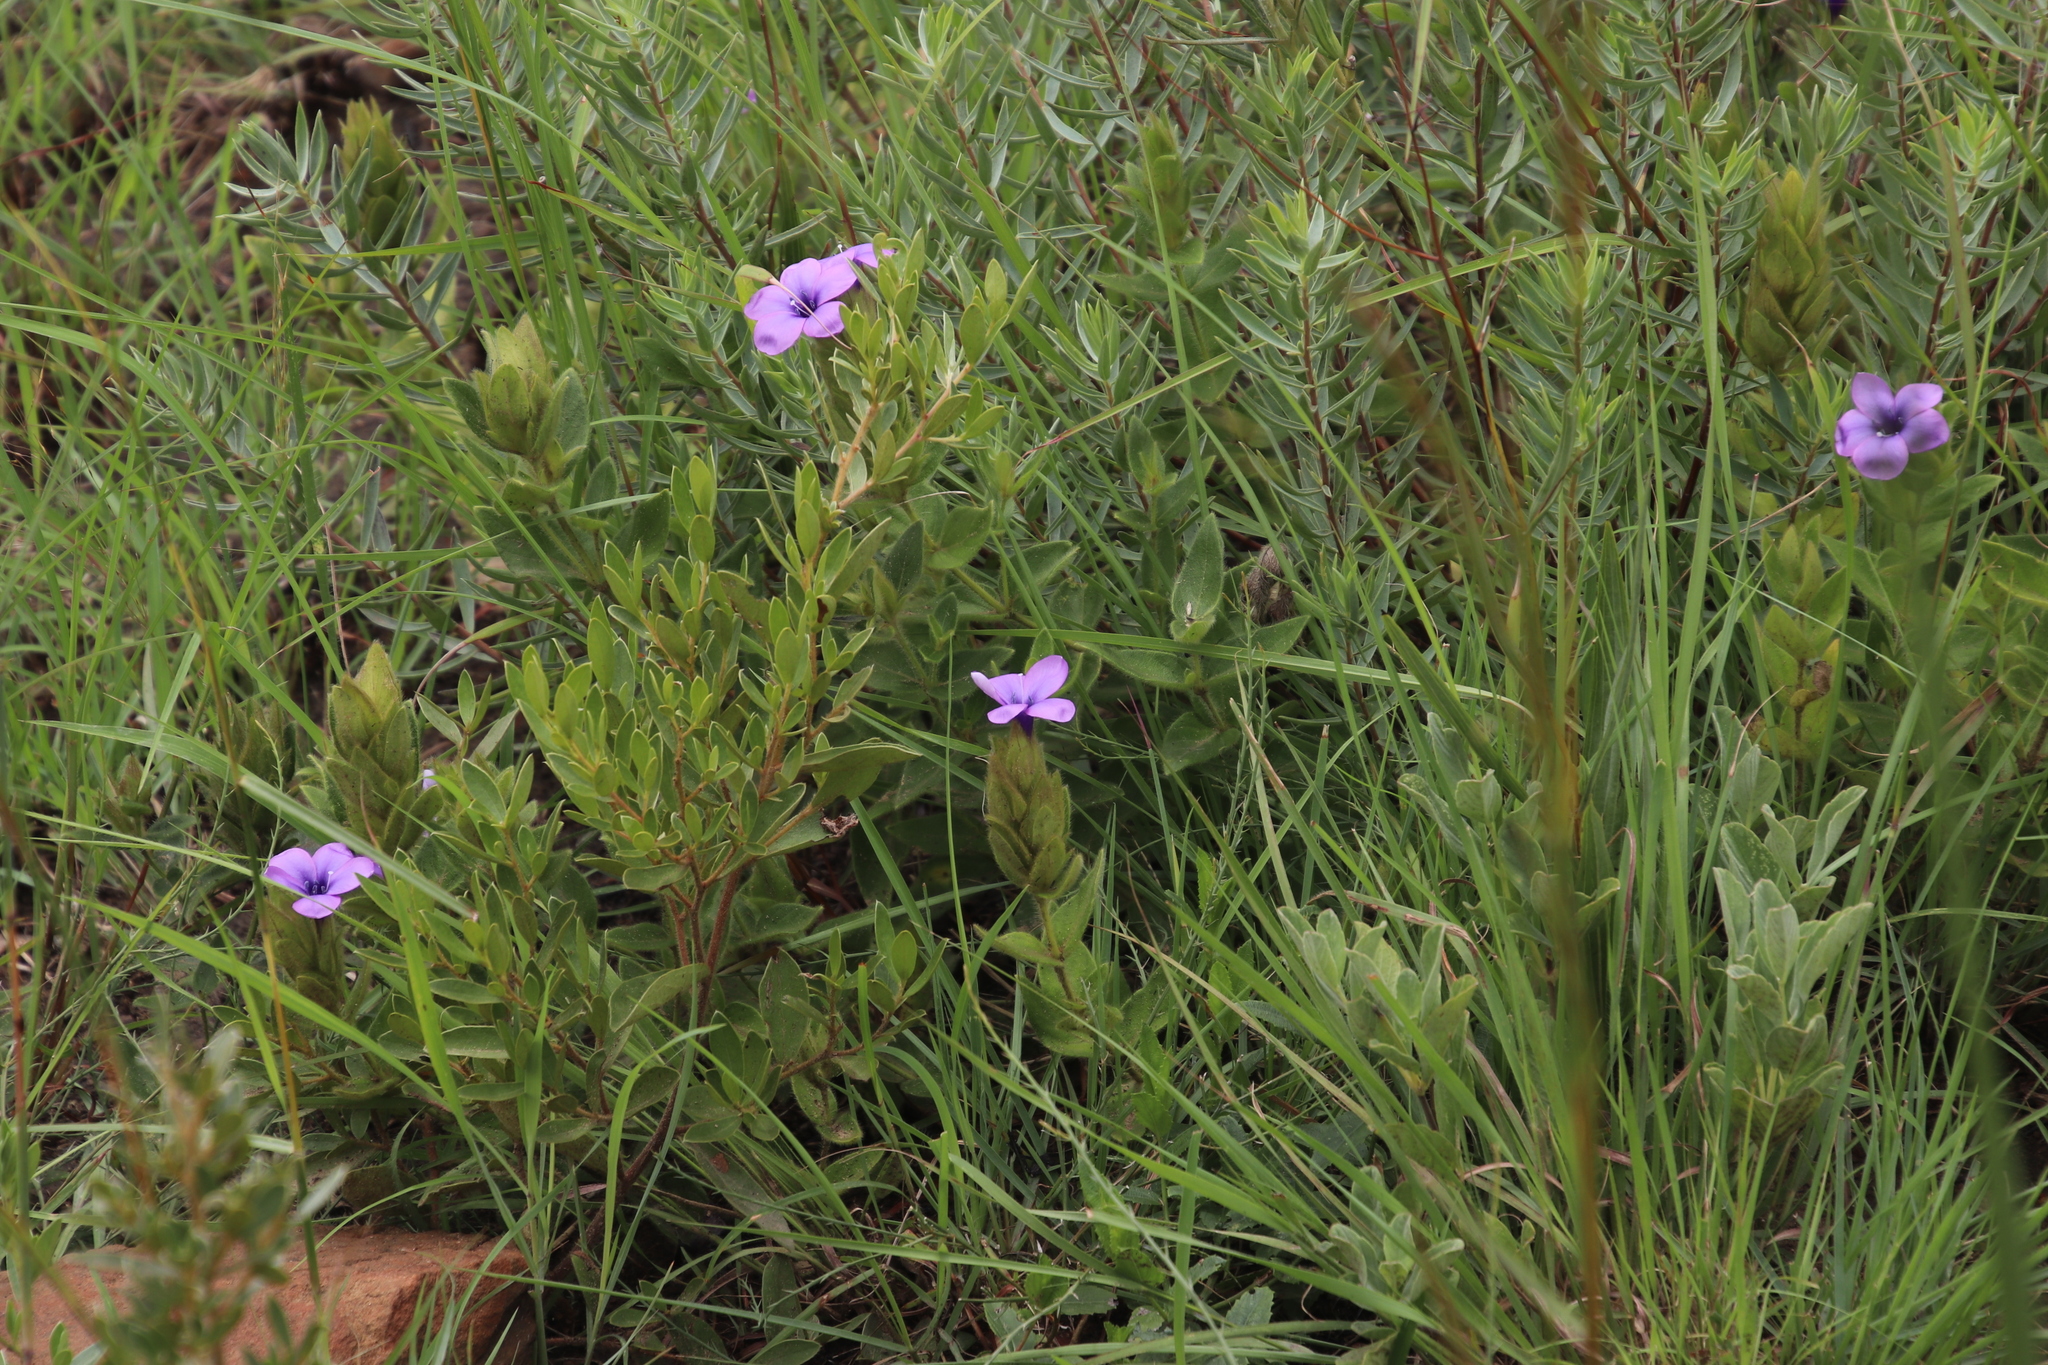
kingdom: Plantae
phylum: Tracheophyta
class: Magnoliopsida
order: Lamiales
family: Acanthaceae
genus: Barleria
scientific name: Barleria ovata
